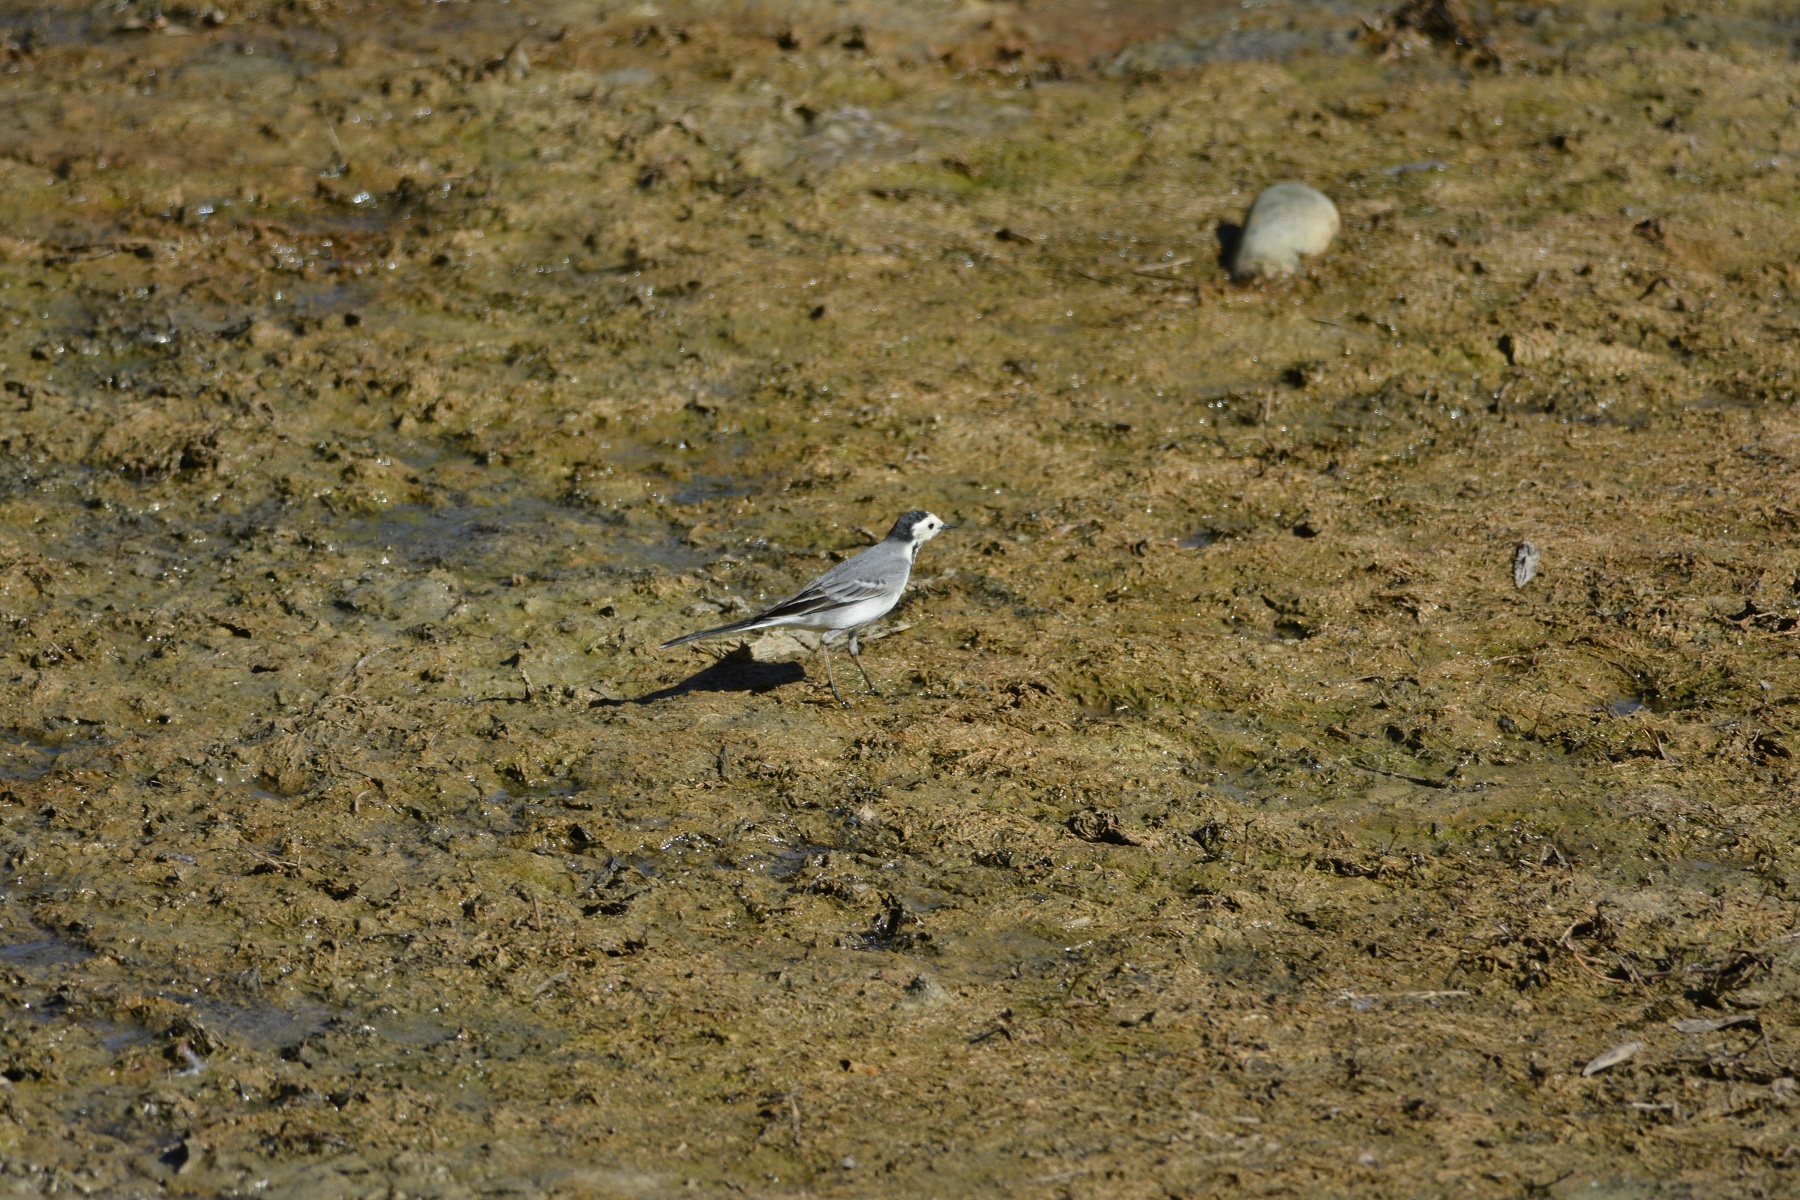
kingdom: Animalia
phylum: Chordata
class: Aves
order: Passeriformes
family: Motacillidae
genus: Motacilla
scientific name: Motacilla alba
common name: White wagtail
